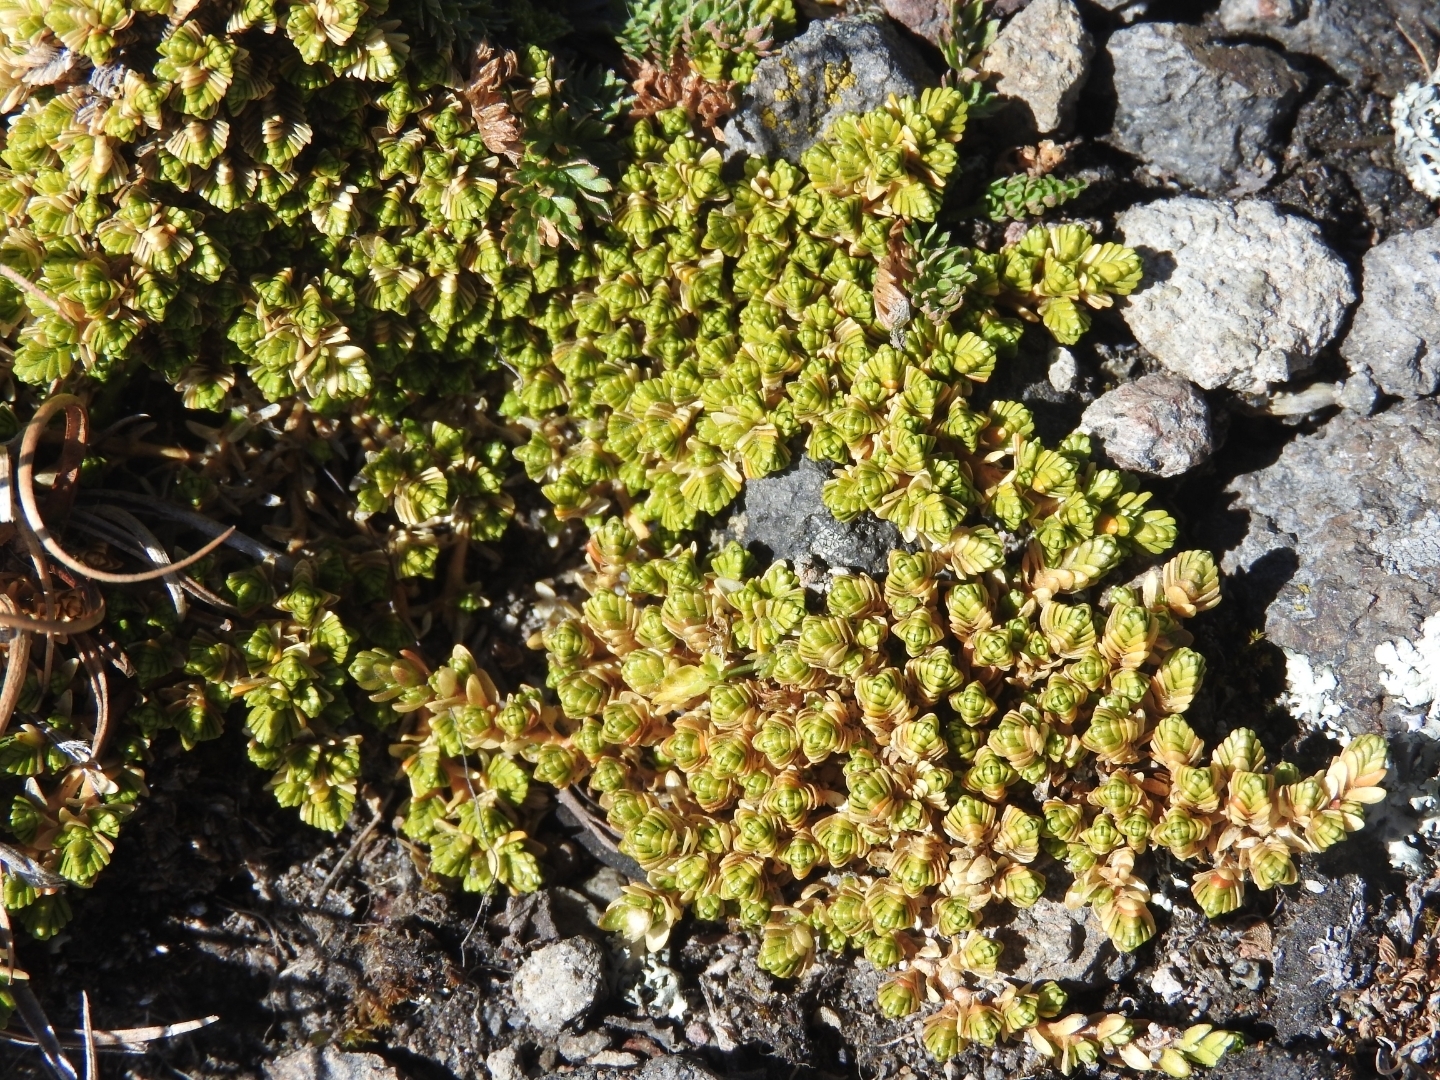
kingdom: Plantae
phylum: Tracheophyta
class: Magnoliopsida
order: Caryophyllales
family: Caryophyllaceae
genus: Arenaria
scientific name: Arenaria bryoides
